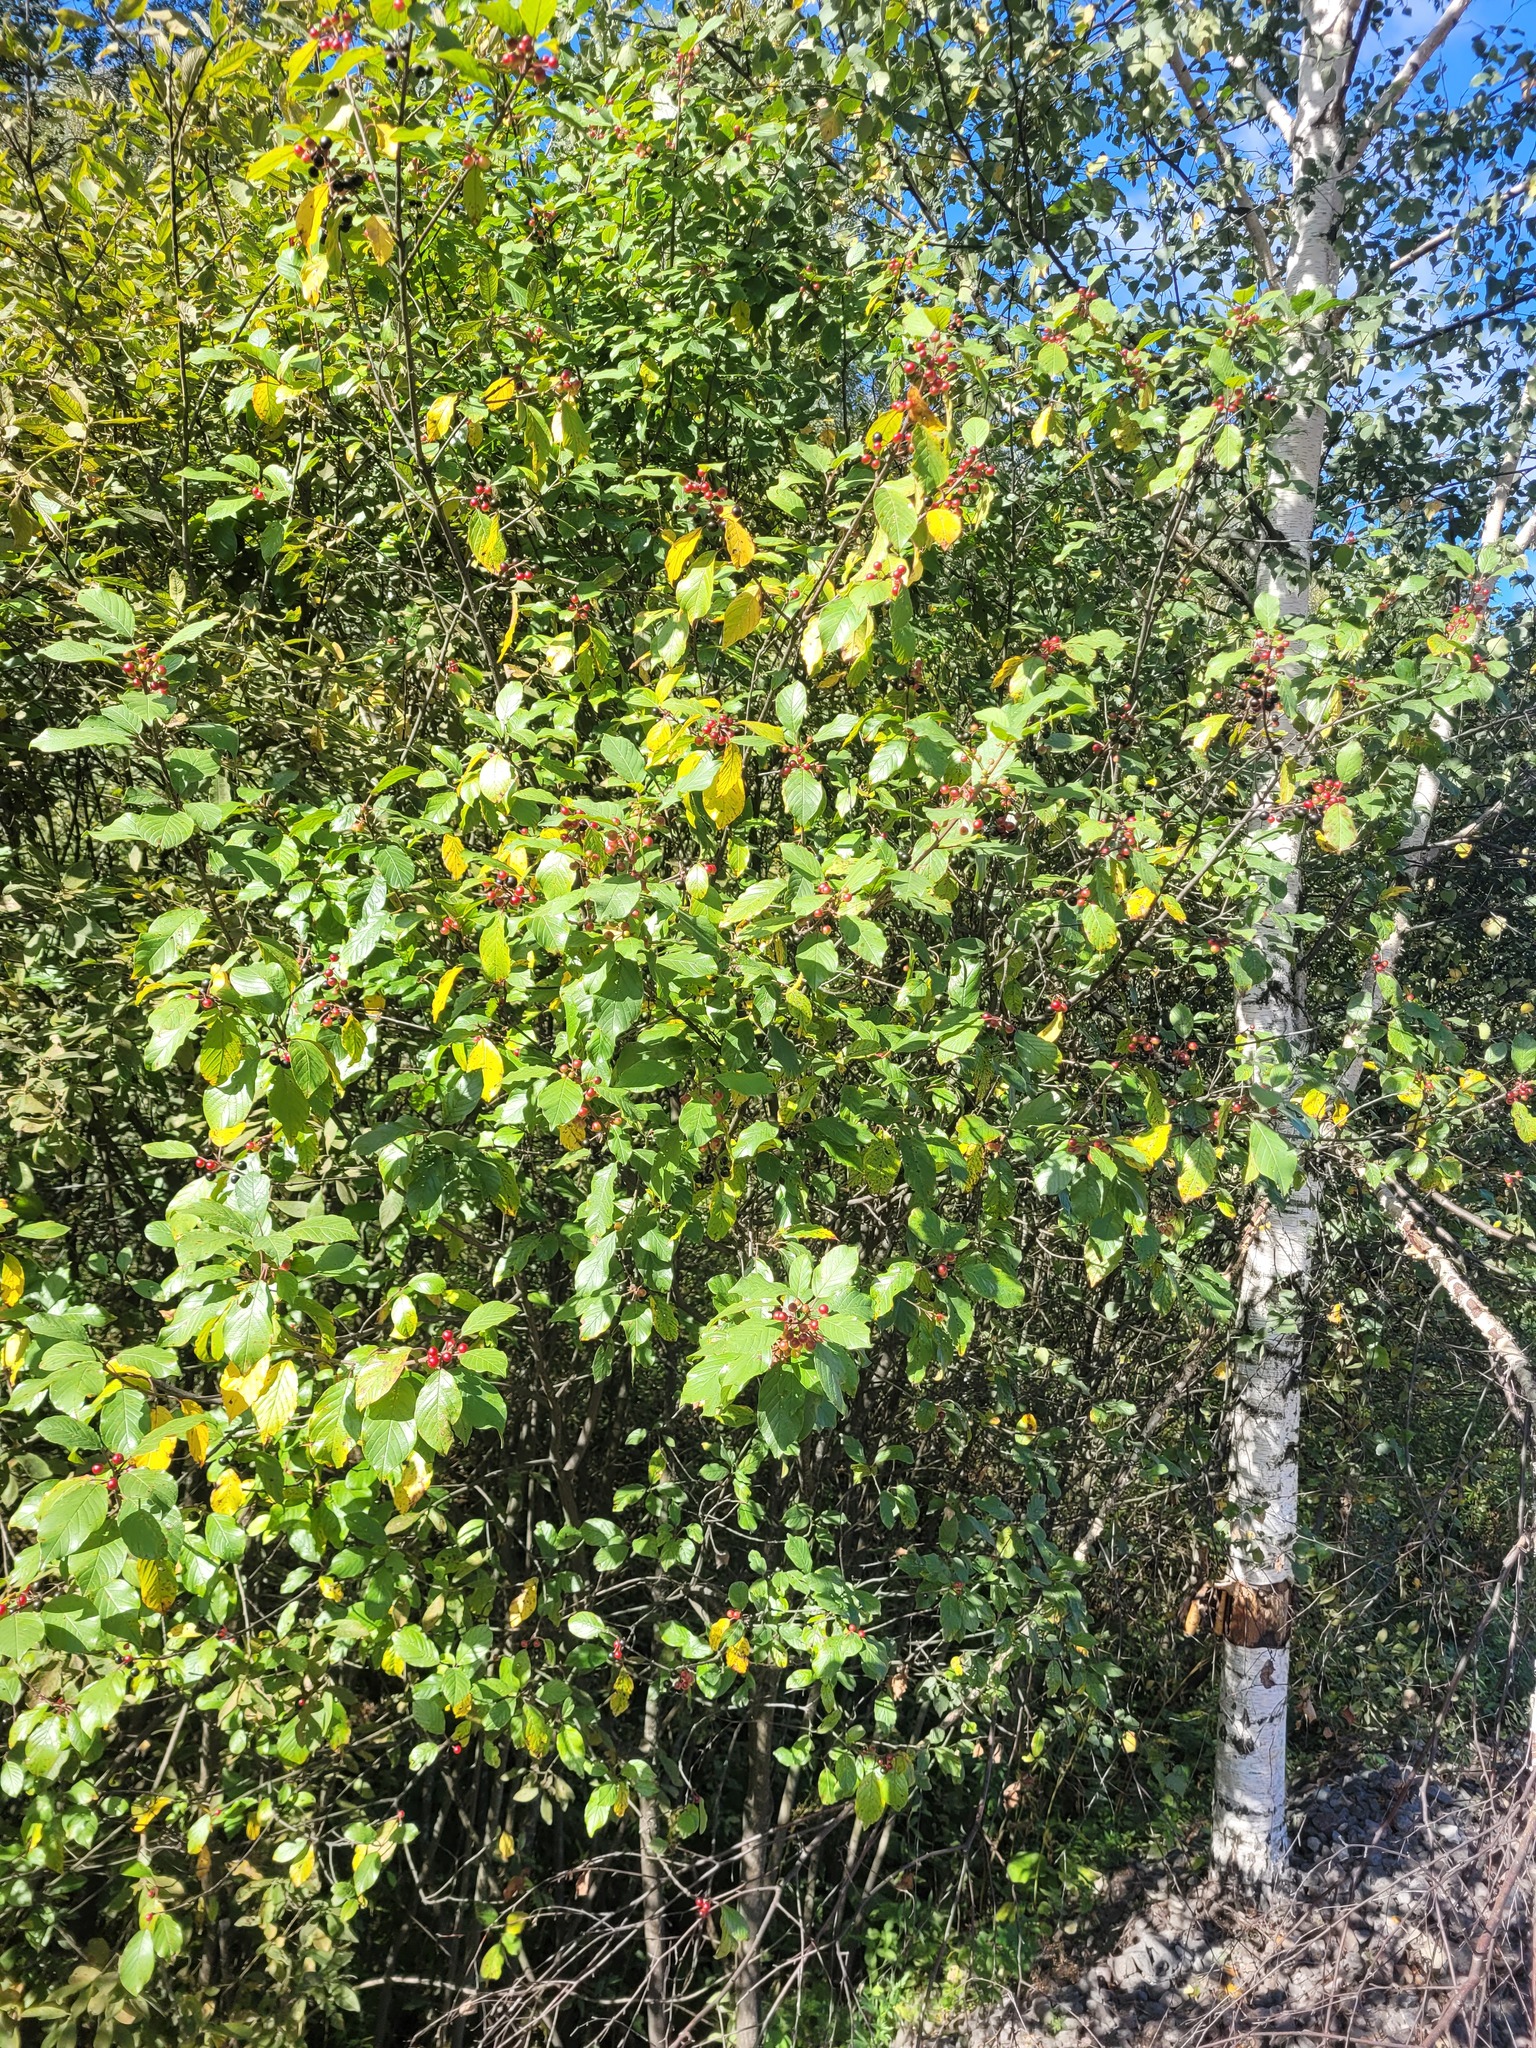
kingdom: Plantae
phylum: Tracheophyta
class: Magnoliopsida
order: Rosales
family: Rhamnaceae
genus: Frangula
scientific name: Frangula alnus
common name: Alder buckthorn
